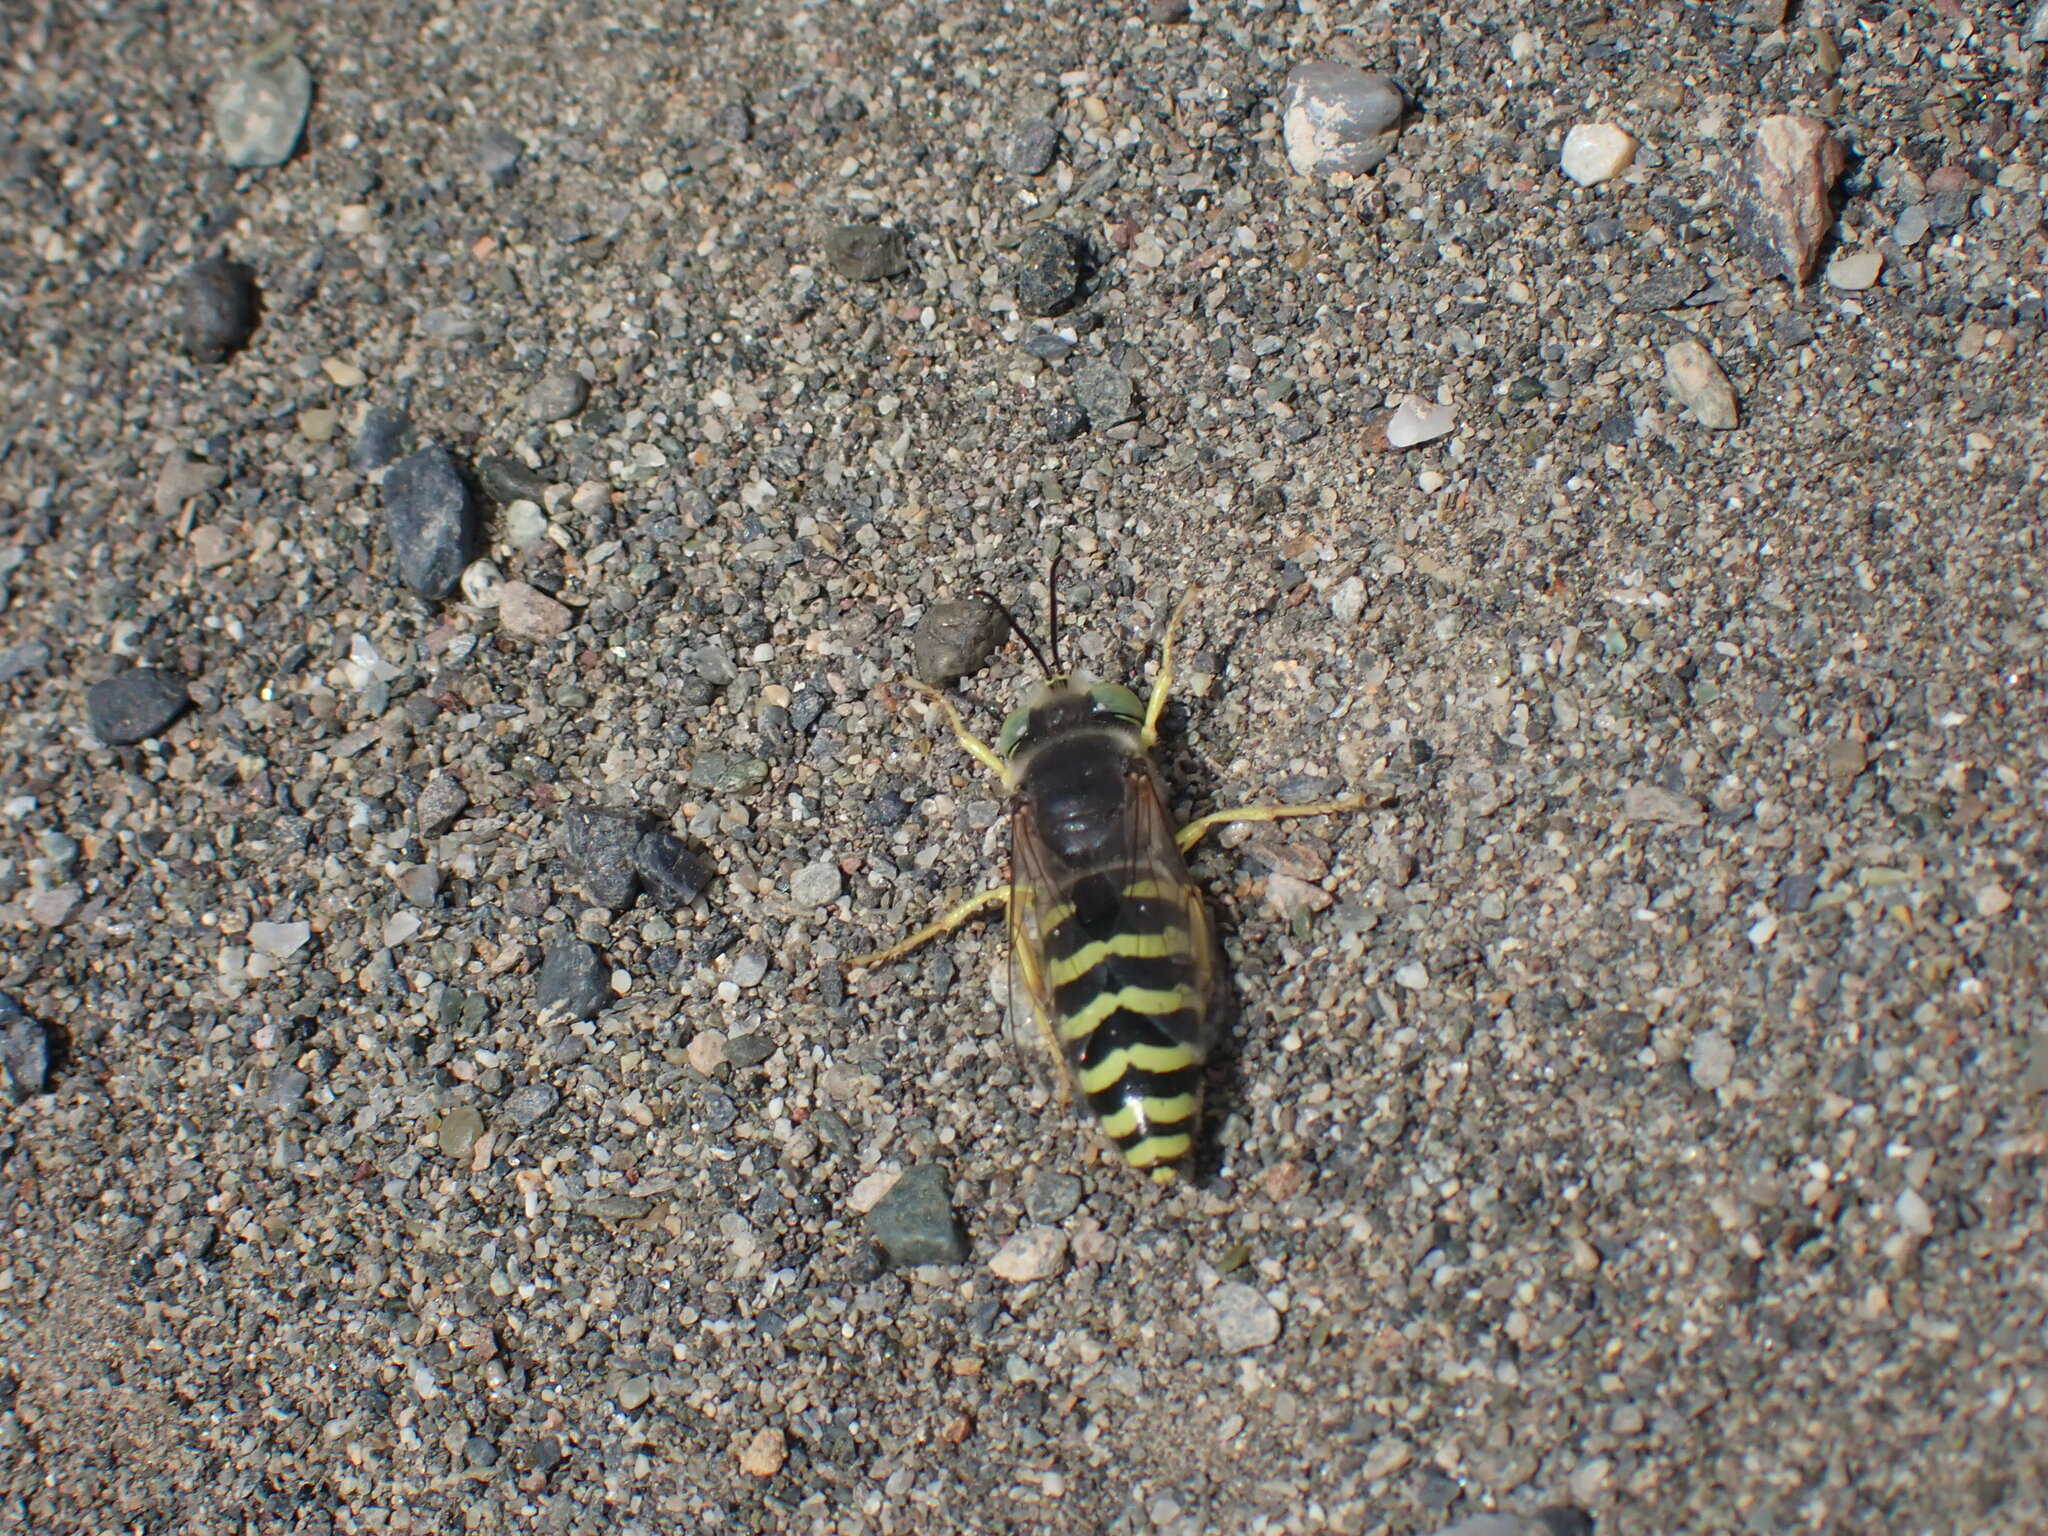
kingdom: Animalia
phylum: Arthropoda
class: Insecta
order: Hymenoptera
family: Crabronidae
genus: Bembix
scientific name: Bembix americana
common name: American sand wasp
